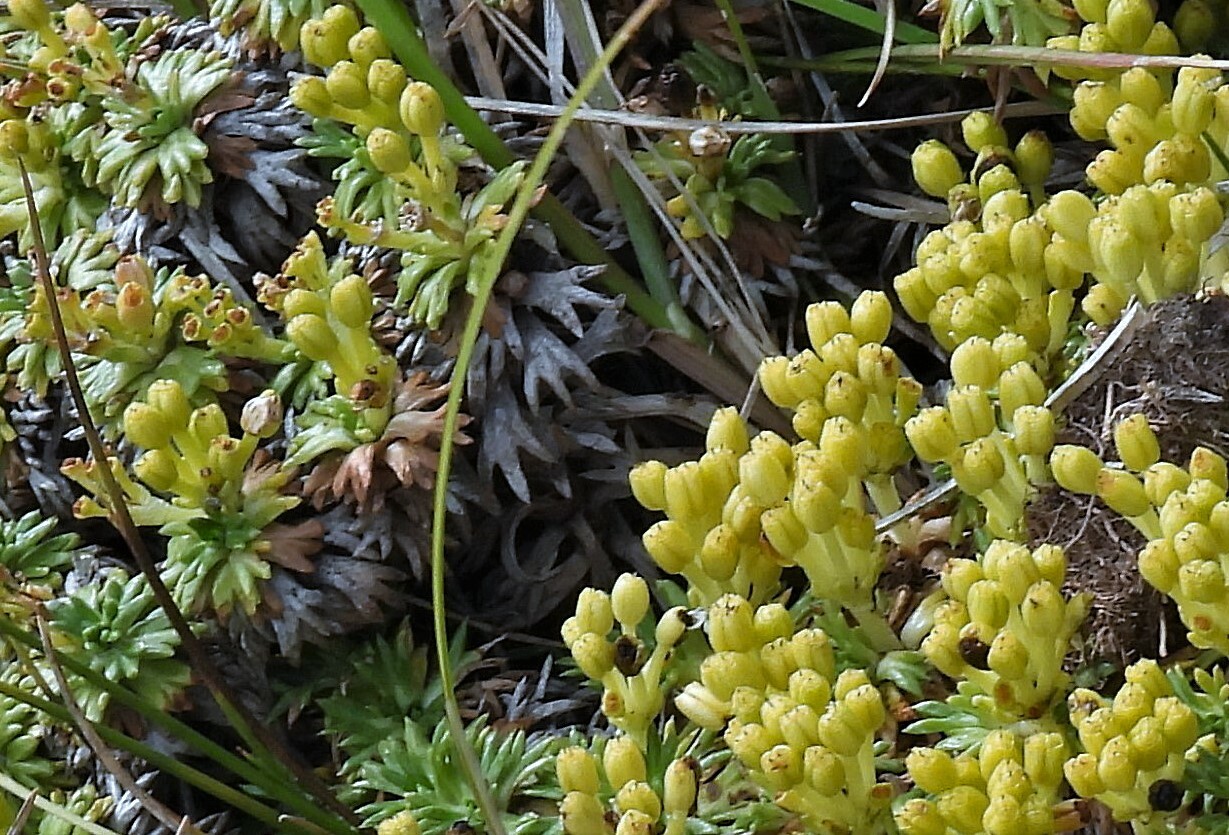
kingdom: Plantae
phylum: Tracheophyta
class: Magnoliopsida
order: Apiales
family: Apiaceae
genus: Azorella
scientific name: Azorella trifurcata
